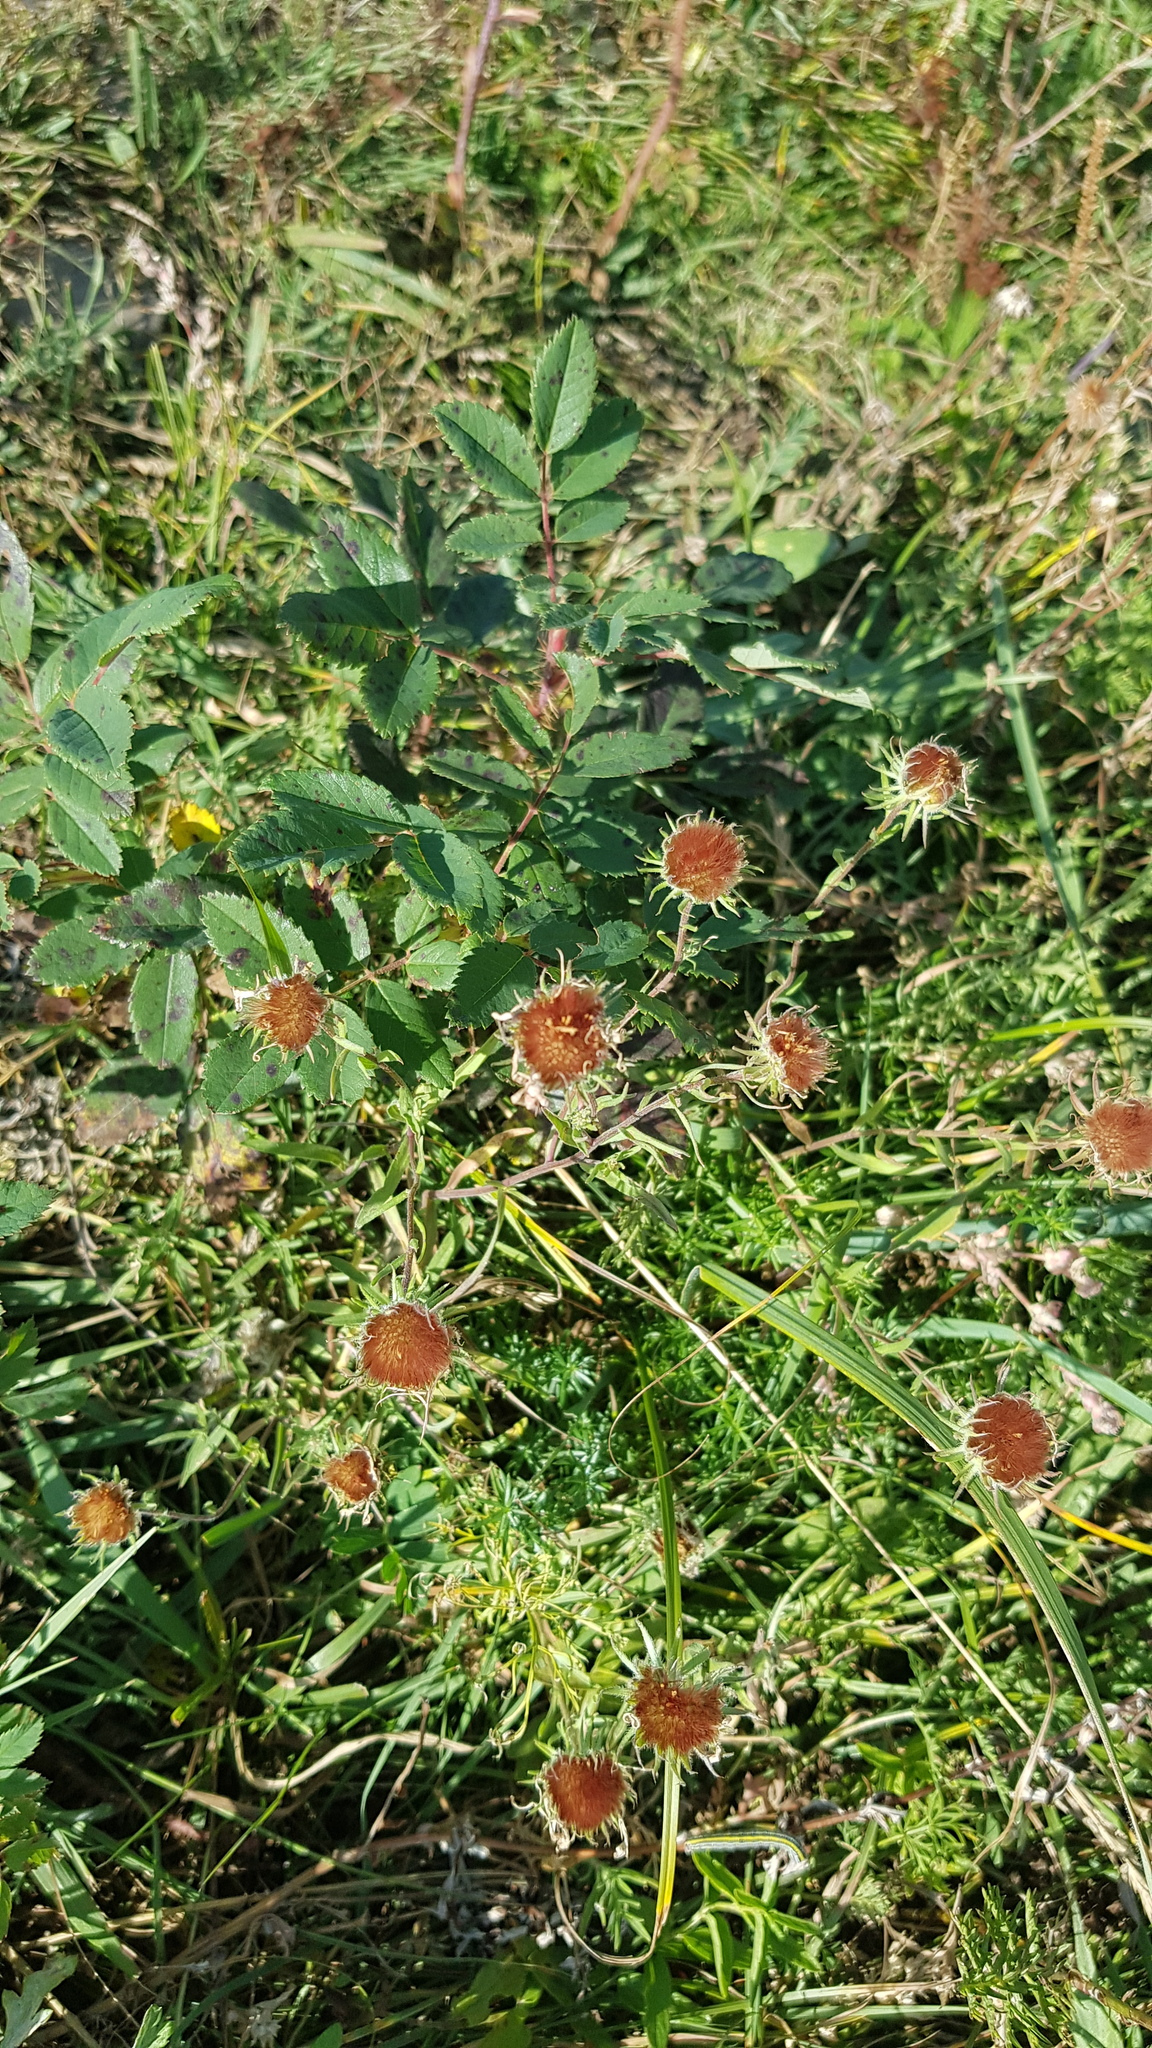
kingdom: Plantae
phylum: Tracheophyta
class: Magnoliopsida
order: Asterales
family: Asteraceae
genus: Heteropappus
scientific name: Heteropappus altaicus
